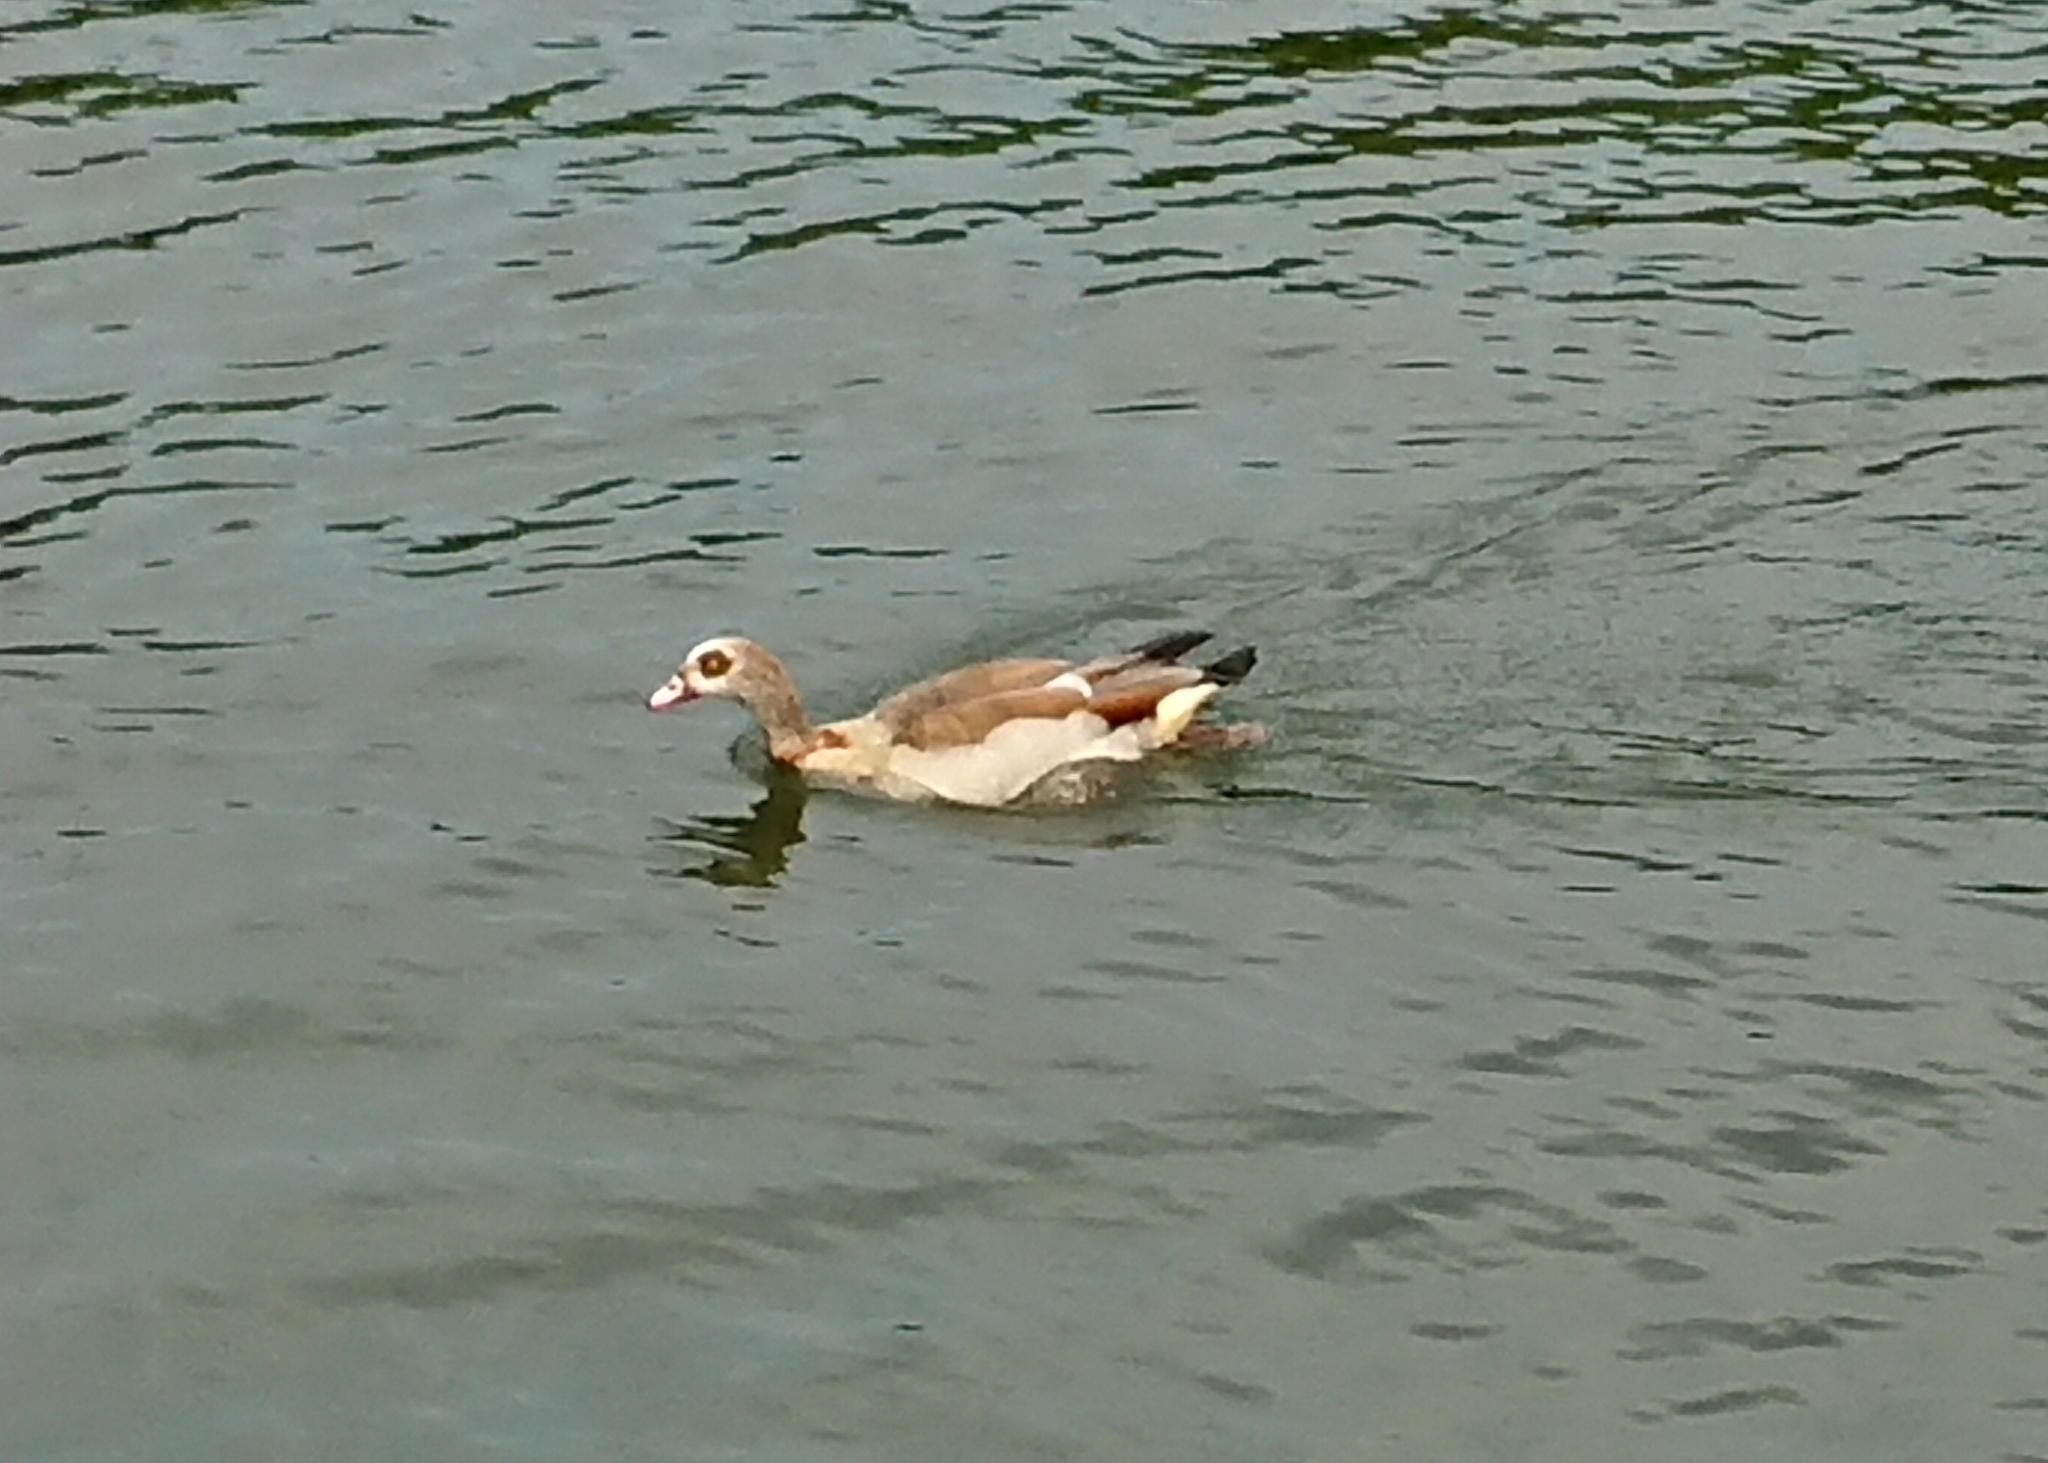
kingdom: Animalia
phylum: Chordata
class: Aves
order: Anseriformes
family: Anatidae
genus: Alopochen
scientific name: Alopochen aegyptiaca
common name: Egyptian goose
